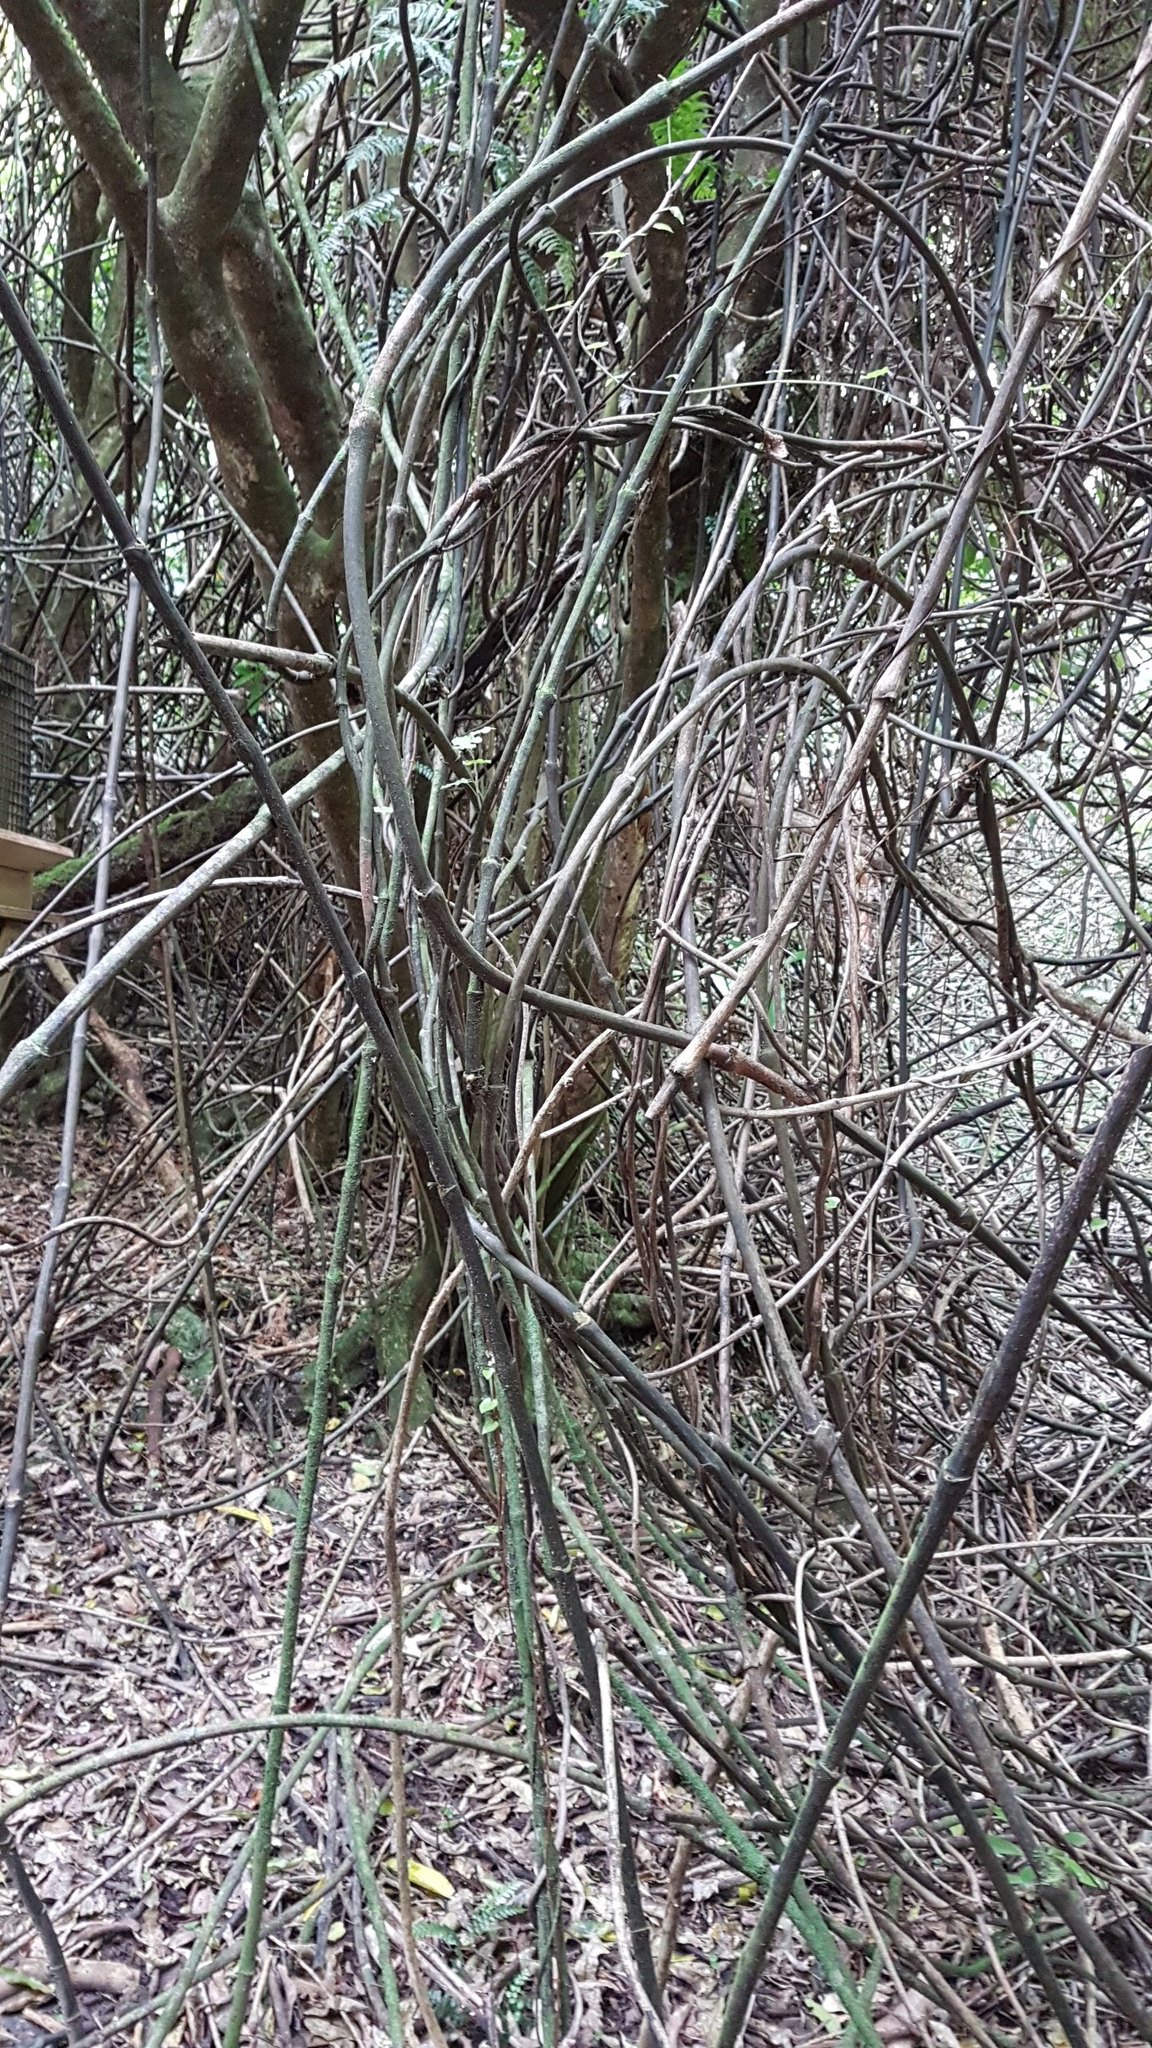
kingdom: Plantae
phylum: Tracheophyta
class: Liliopsida
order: Liliales
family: Ripogonaceae
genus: Ripogonum
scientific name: Ripogonum scandens
